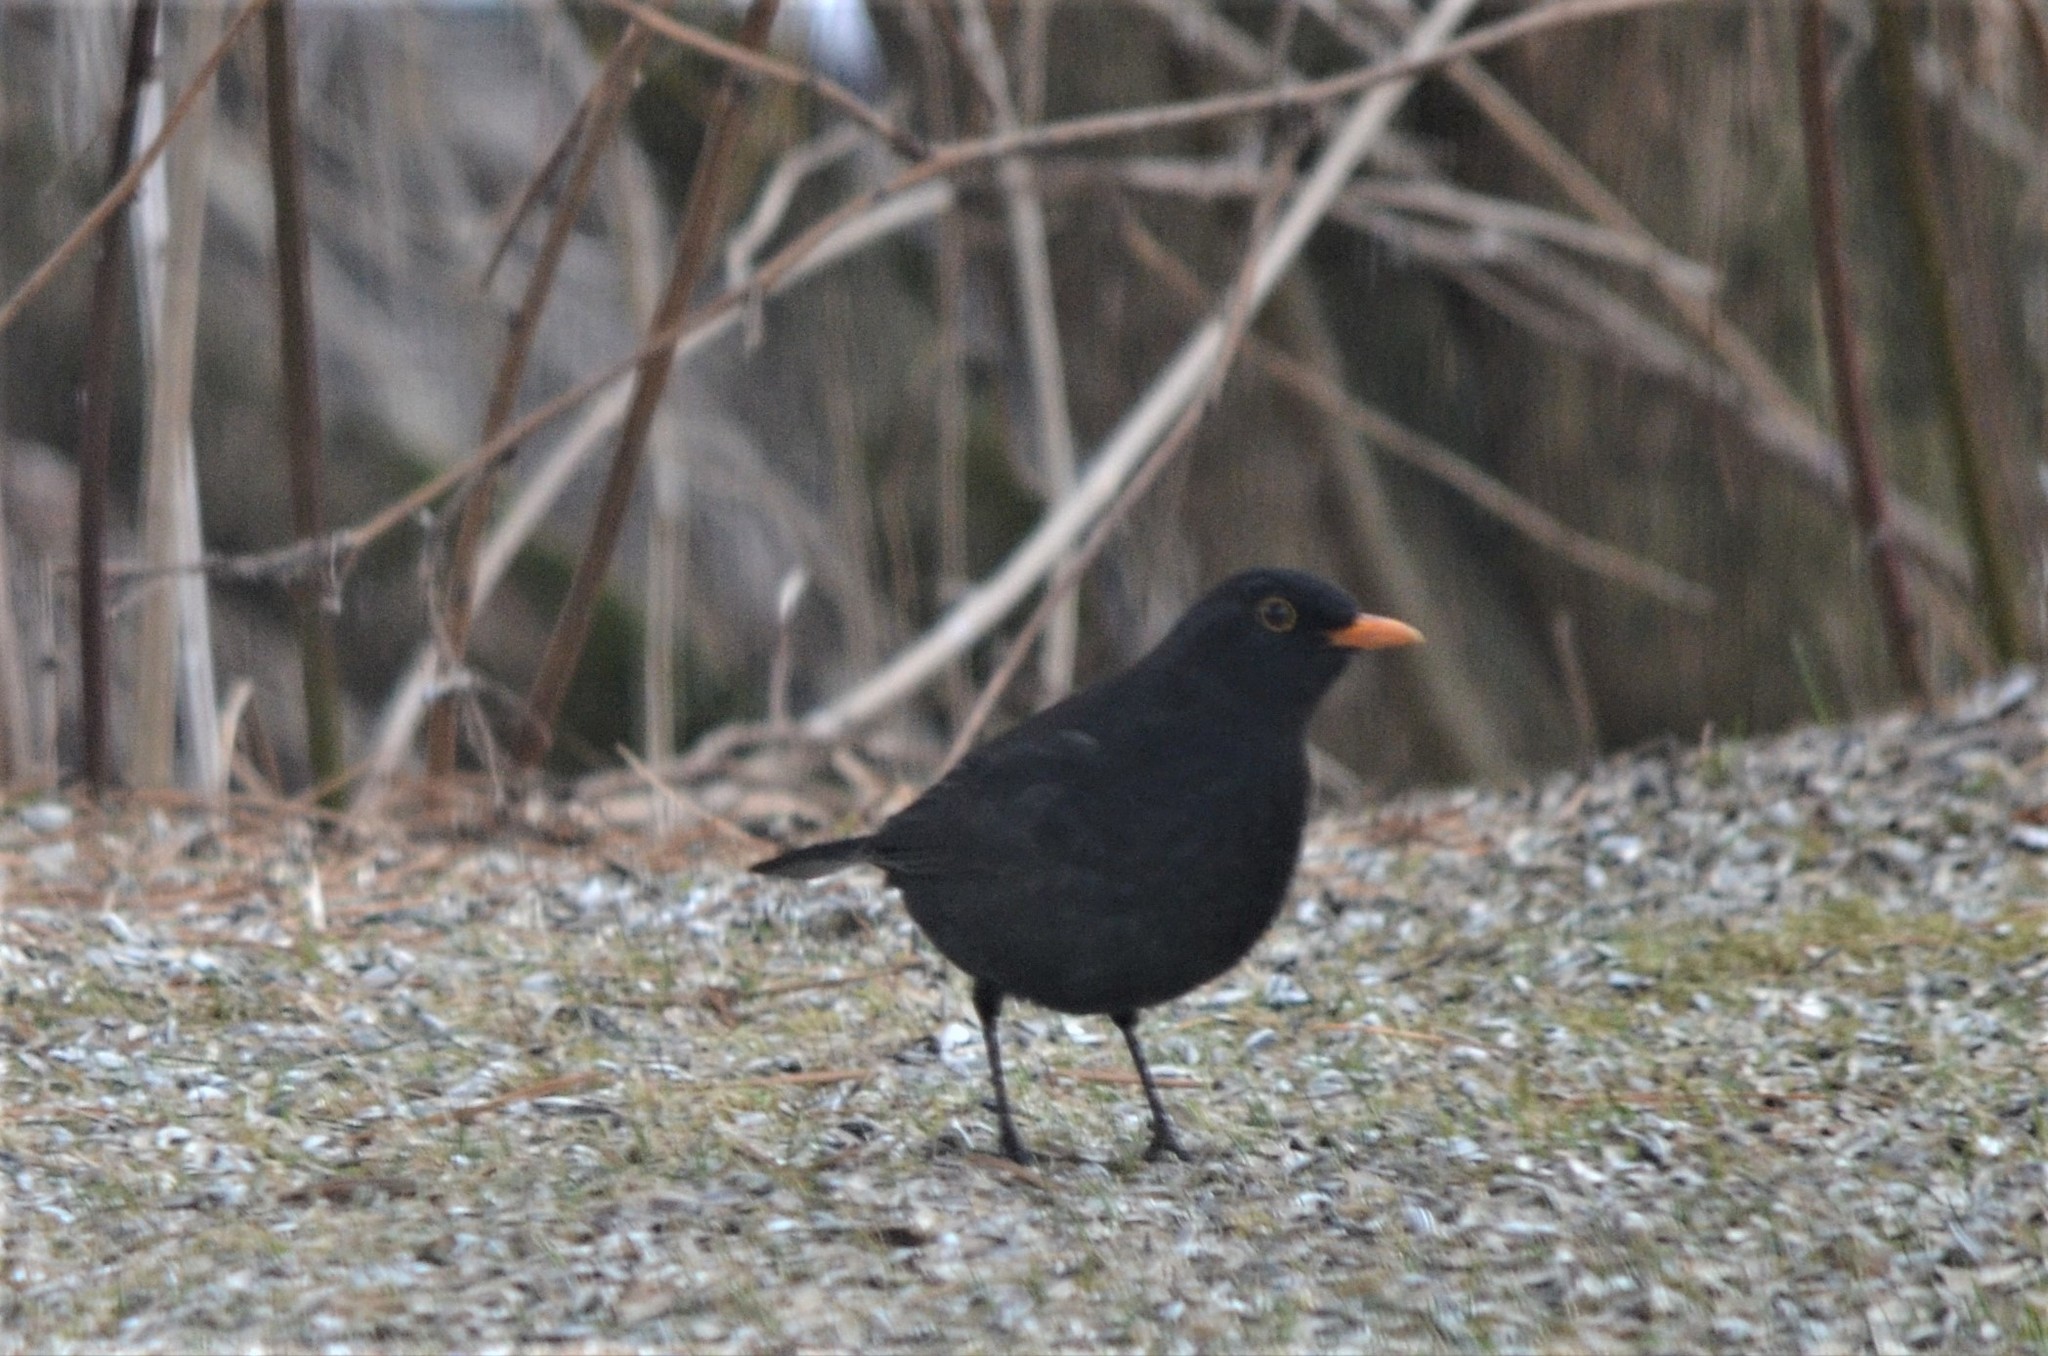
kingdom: Animalia
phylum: Chordata
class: Aves
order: Passeriformes
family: Turdidae
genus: Turdus
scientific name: Turdus merula
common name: Common blackbird
